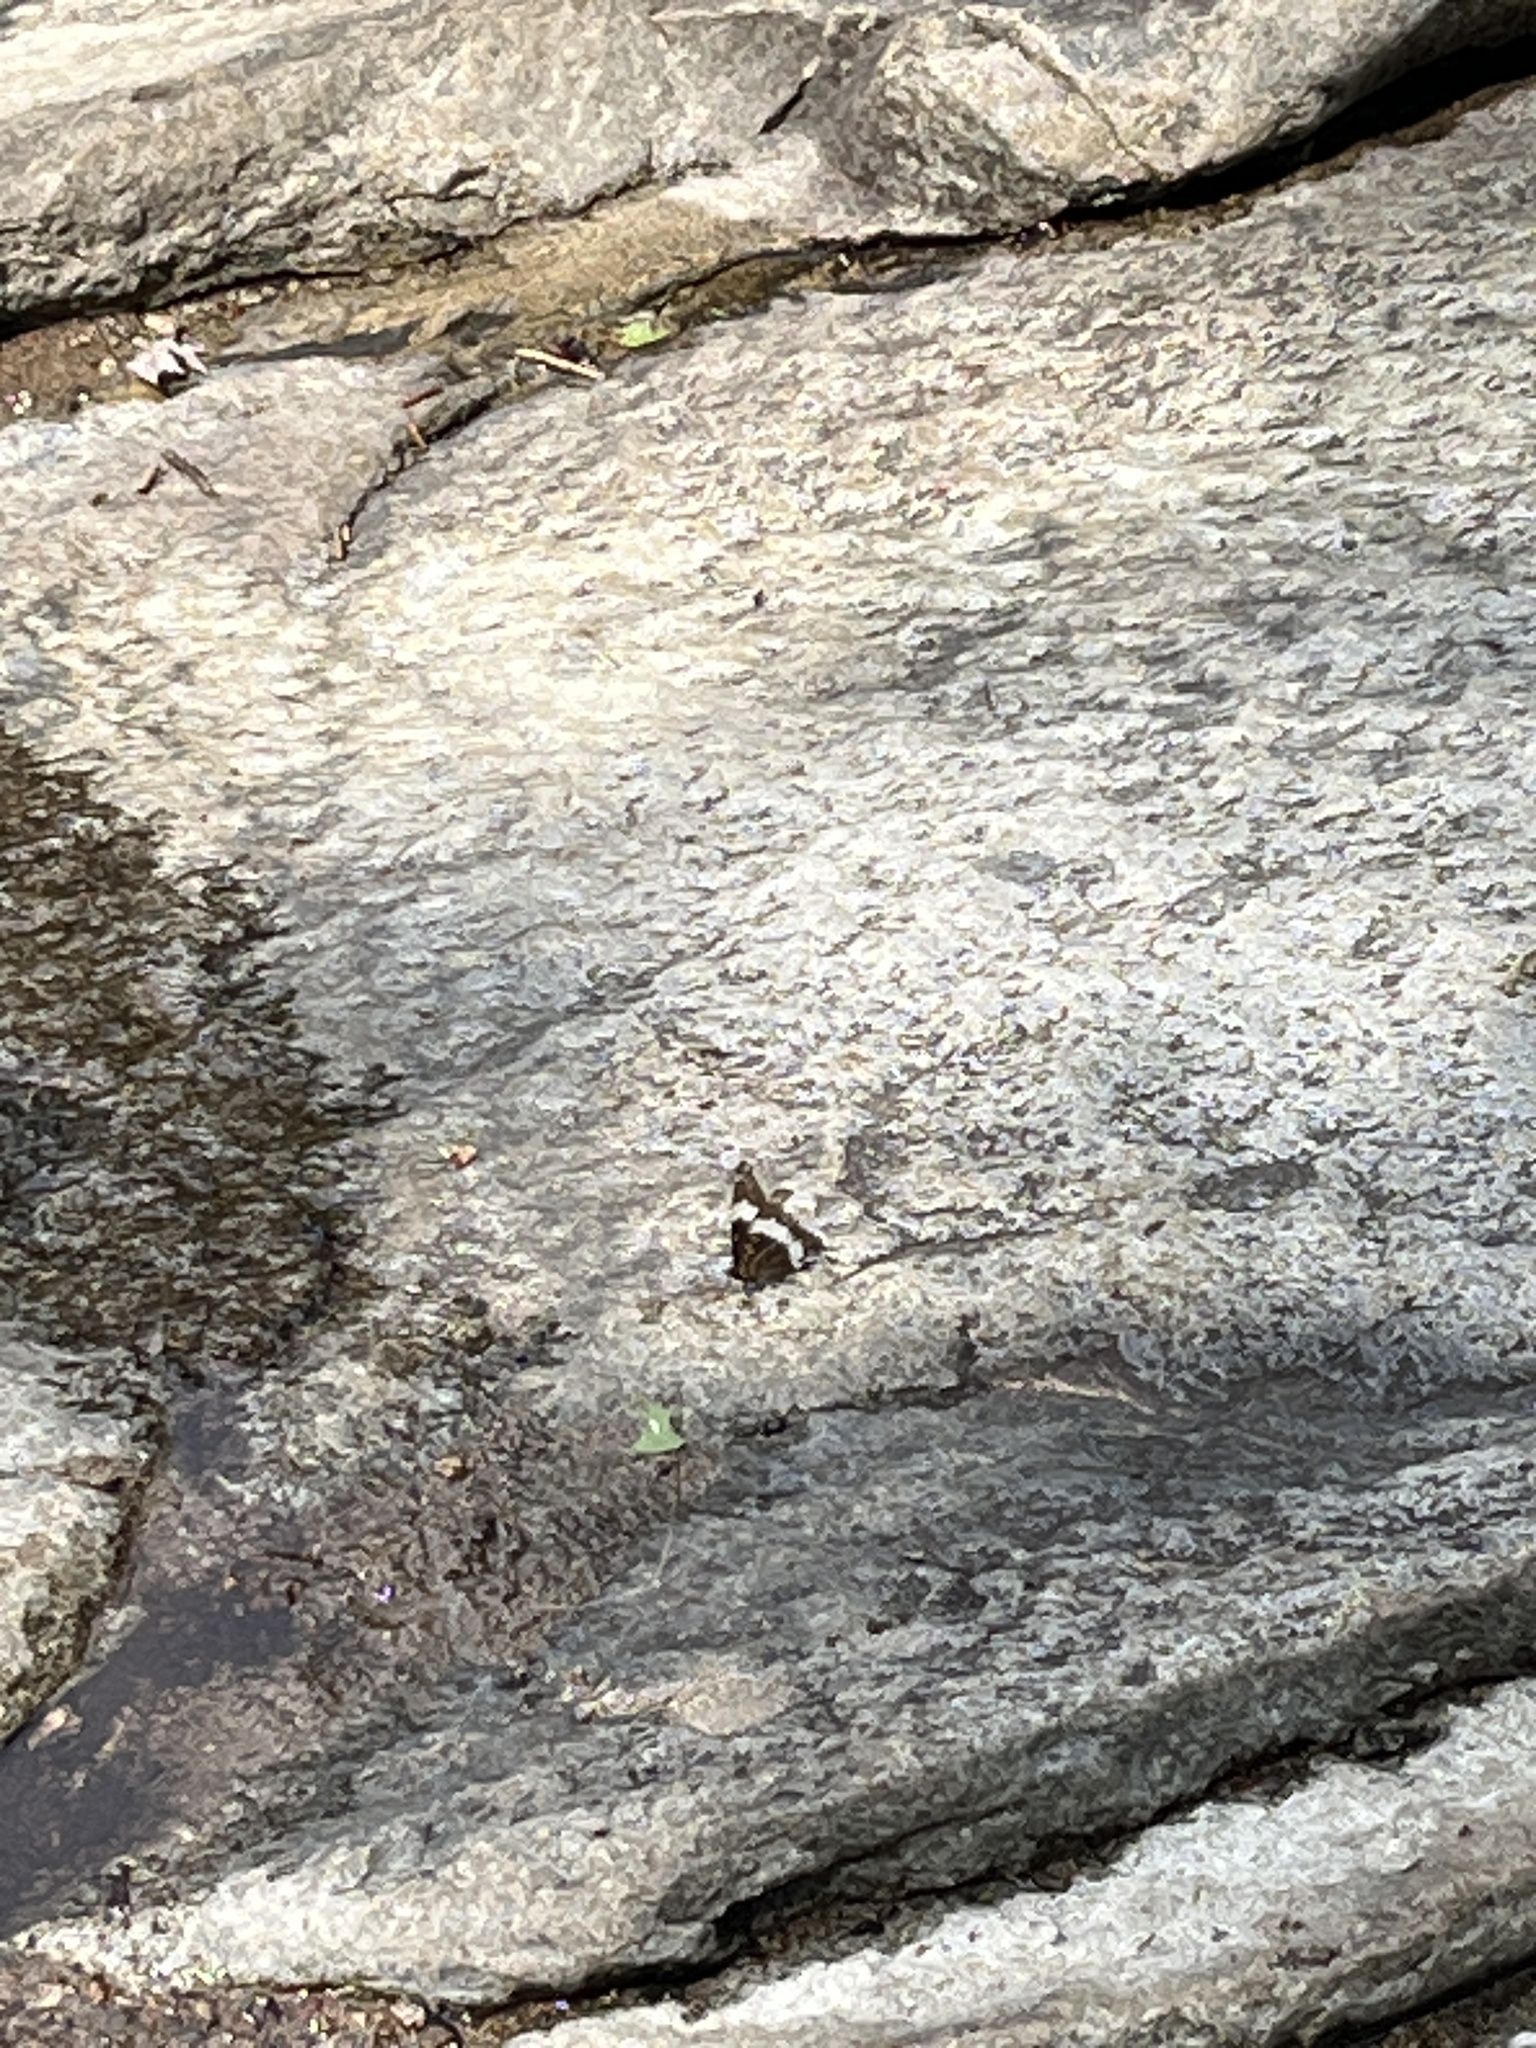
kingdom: Animalia
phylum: Arthropoda
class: Insecta
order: Lepidoptera
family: Nymphalidae
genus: Limenitis
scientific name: Limenitis arthemis
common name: Red-spotted admiral
